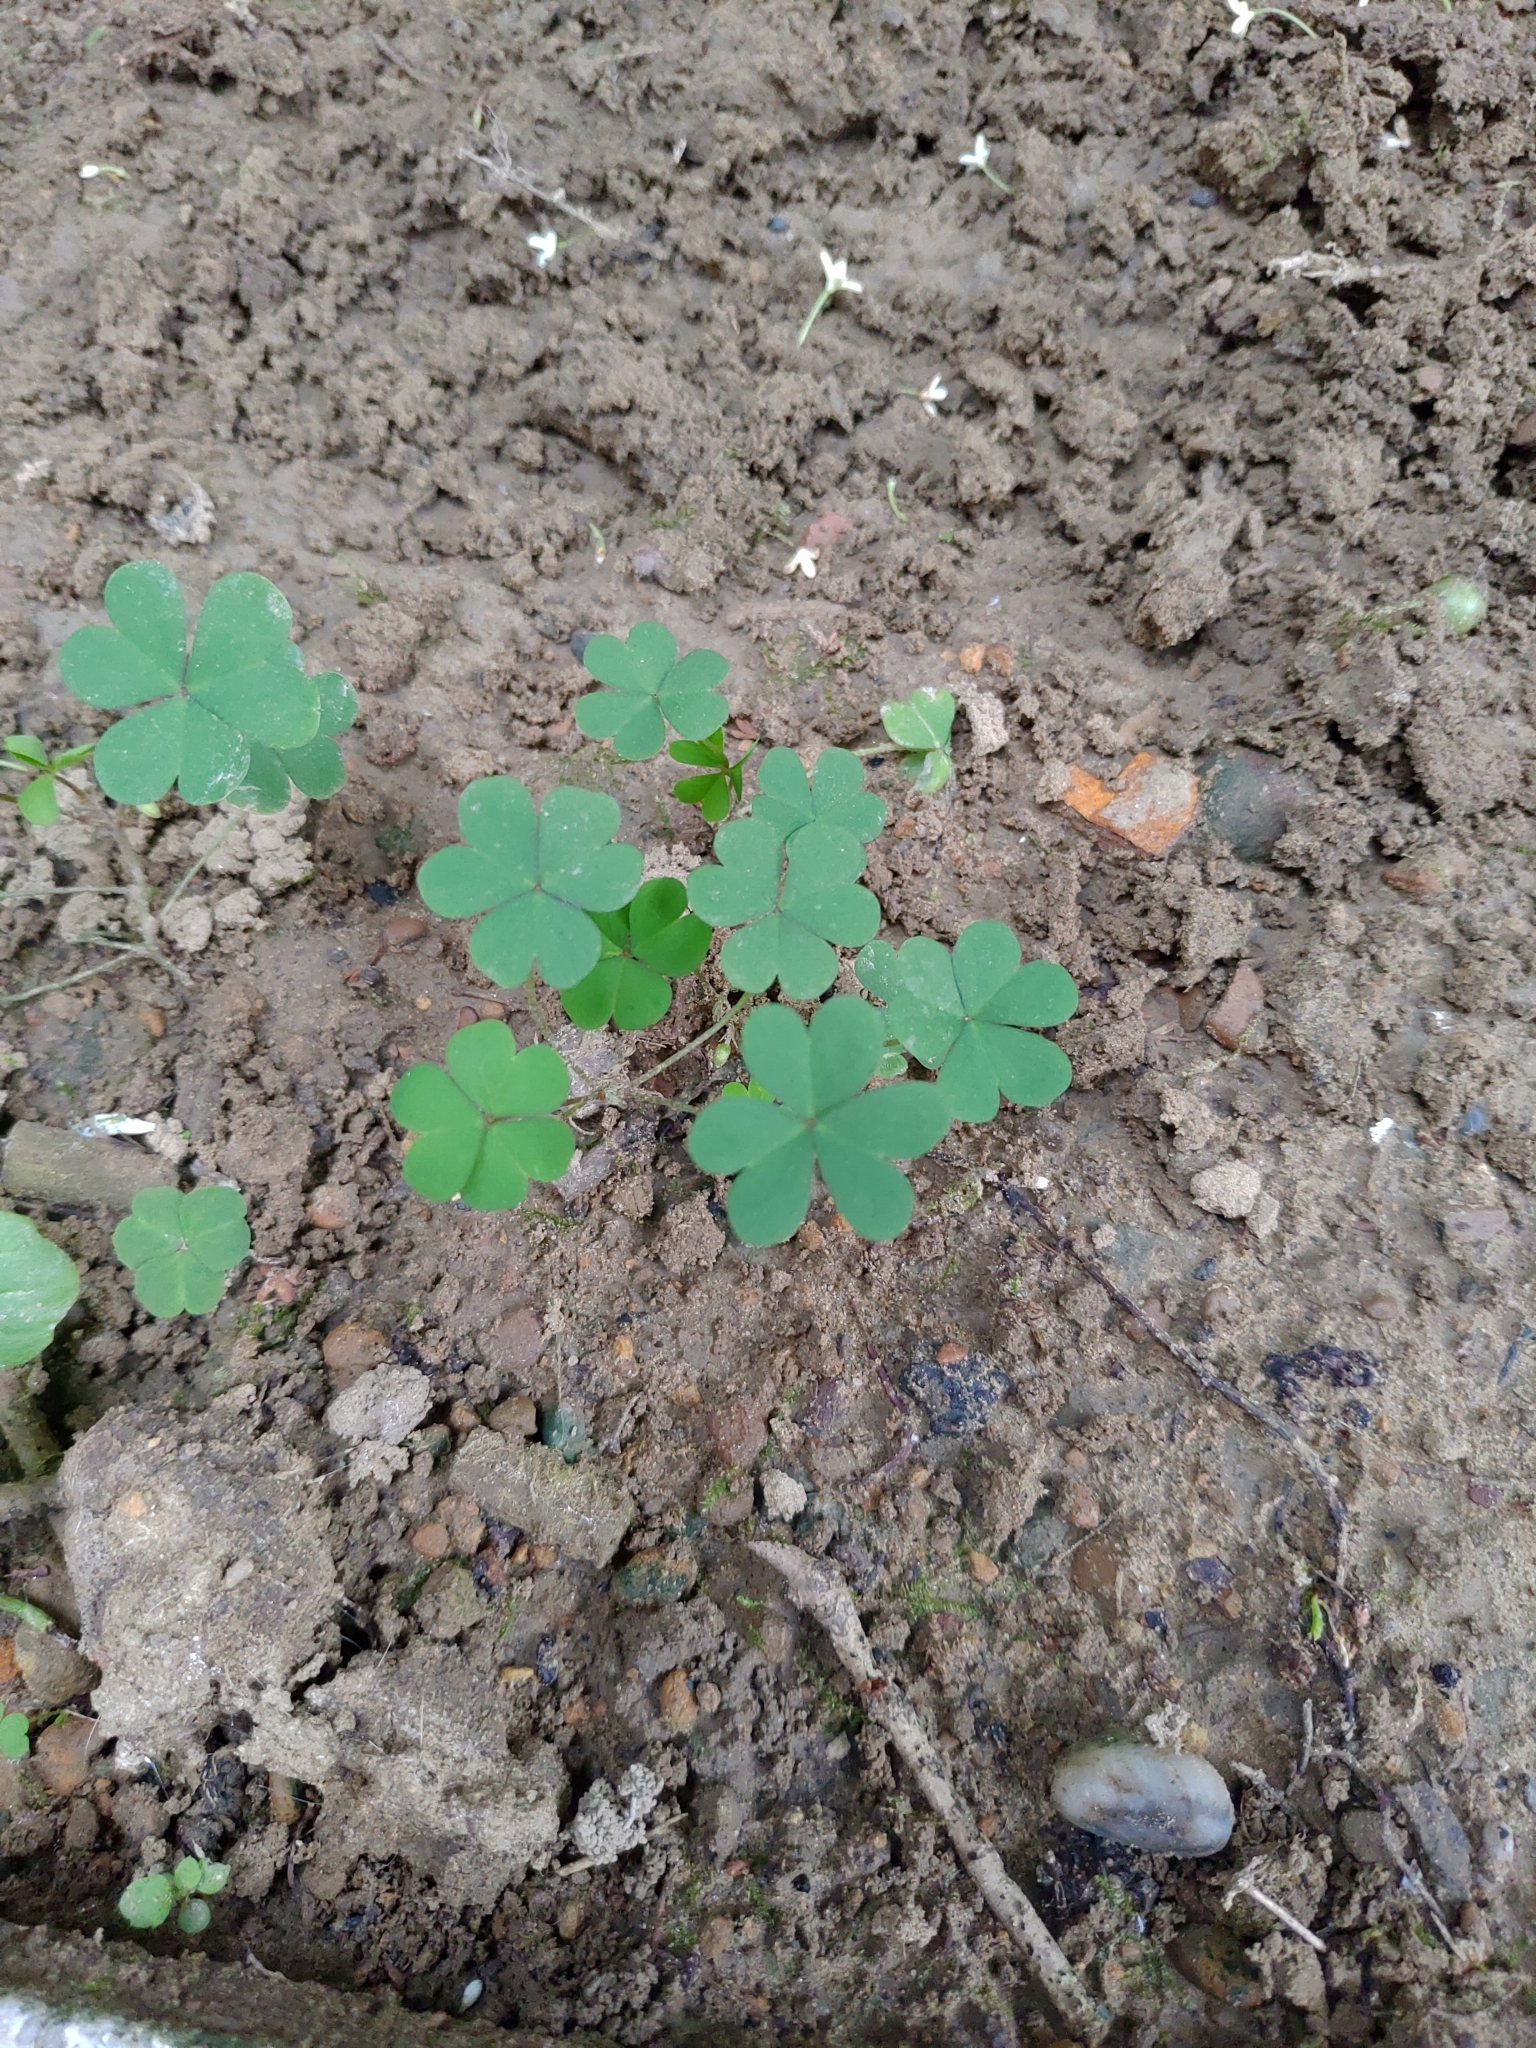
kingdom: Plantae
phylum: Tracheophyta
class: Magnoliopsida
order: Oxalidales
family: Oxalidaceae
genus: Oxalis
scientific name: Oxalis corniculata
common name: Procumbent yellow-sorrel
